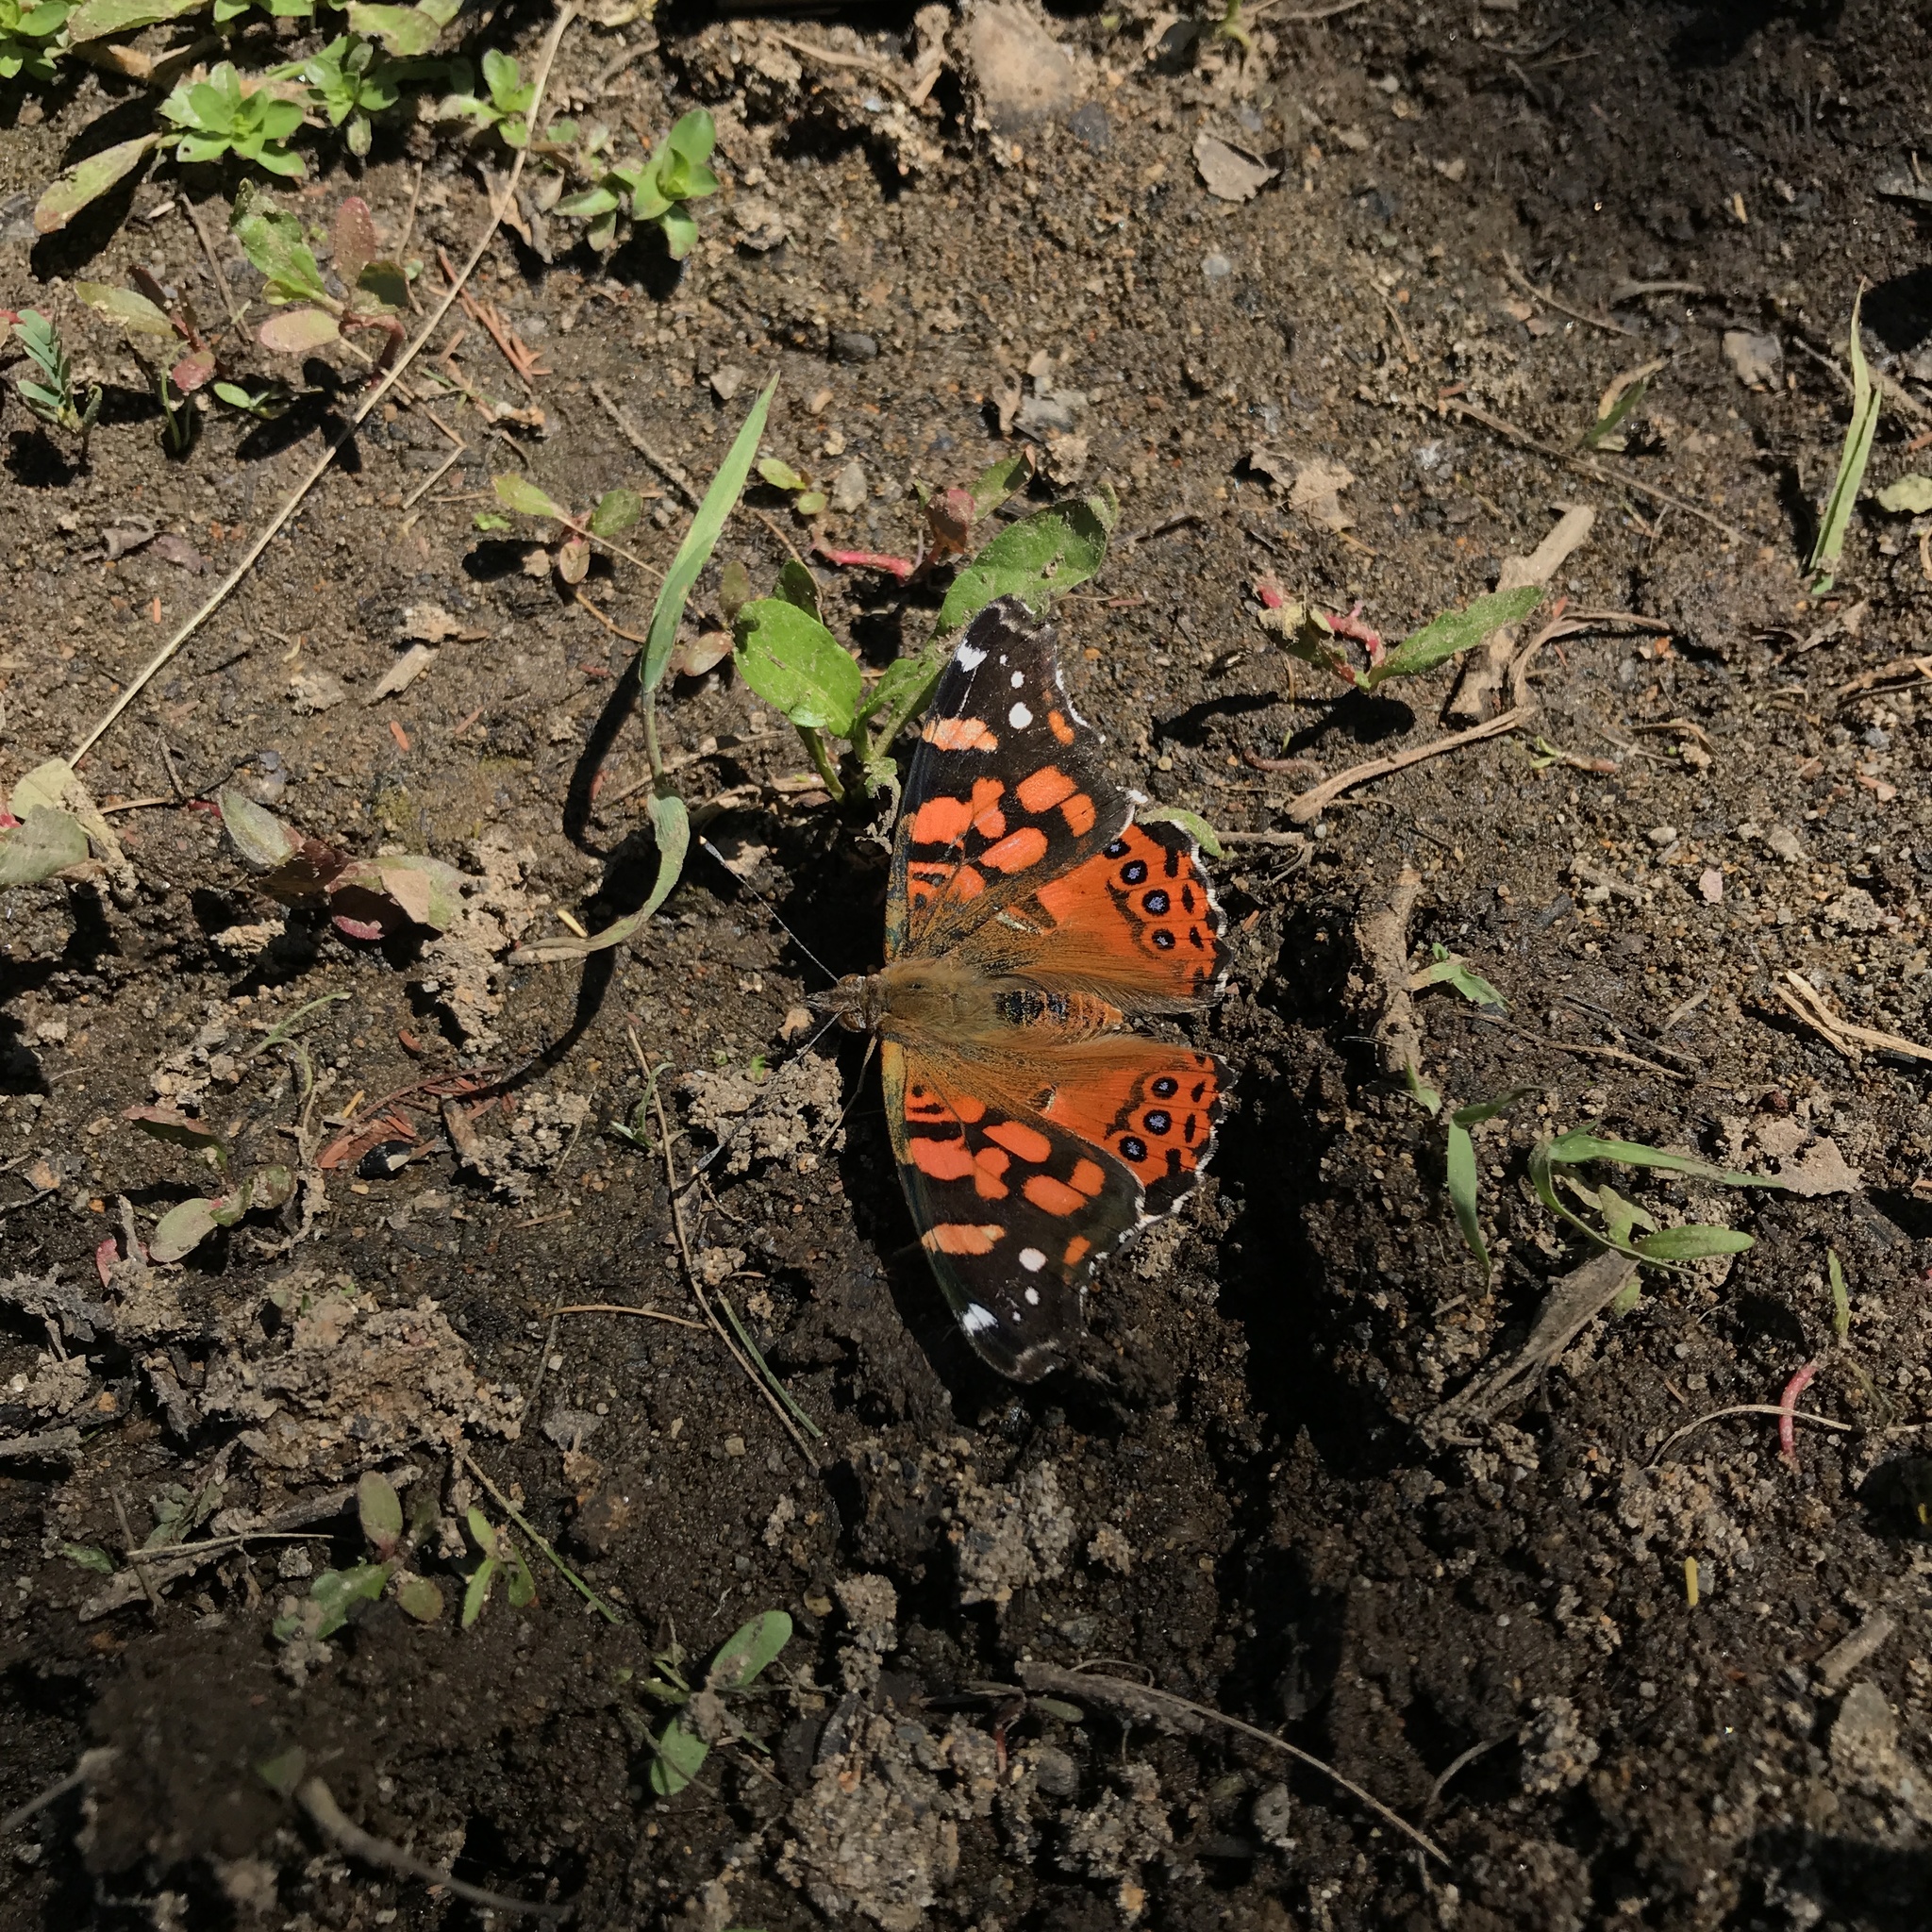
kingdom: Animalia
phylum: Arthropoda
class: Insecta
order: Lepidoptera
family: Nymphalidae
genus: Vanessa
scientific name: Vanessa carye
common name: Subtropical lady
